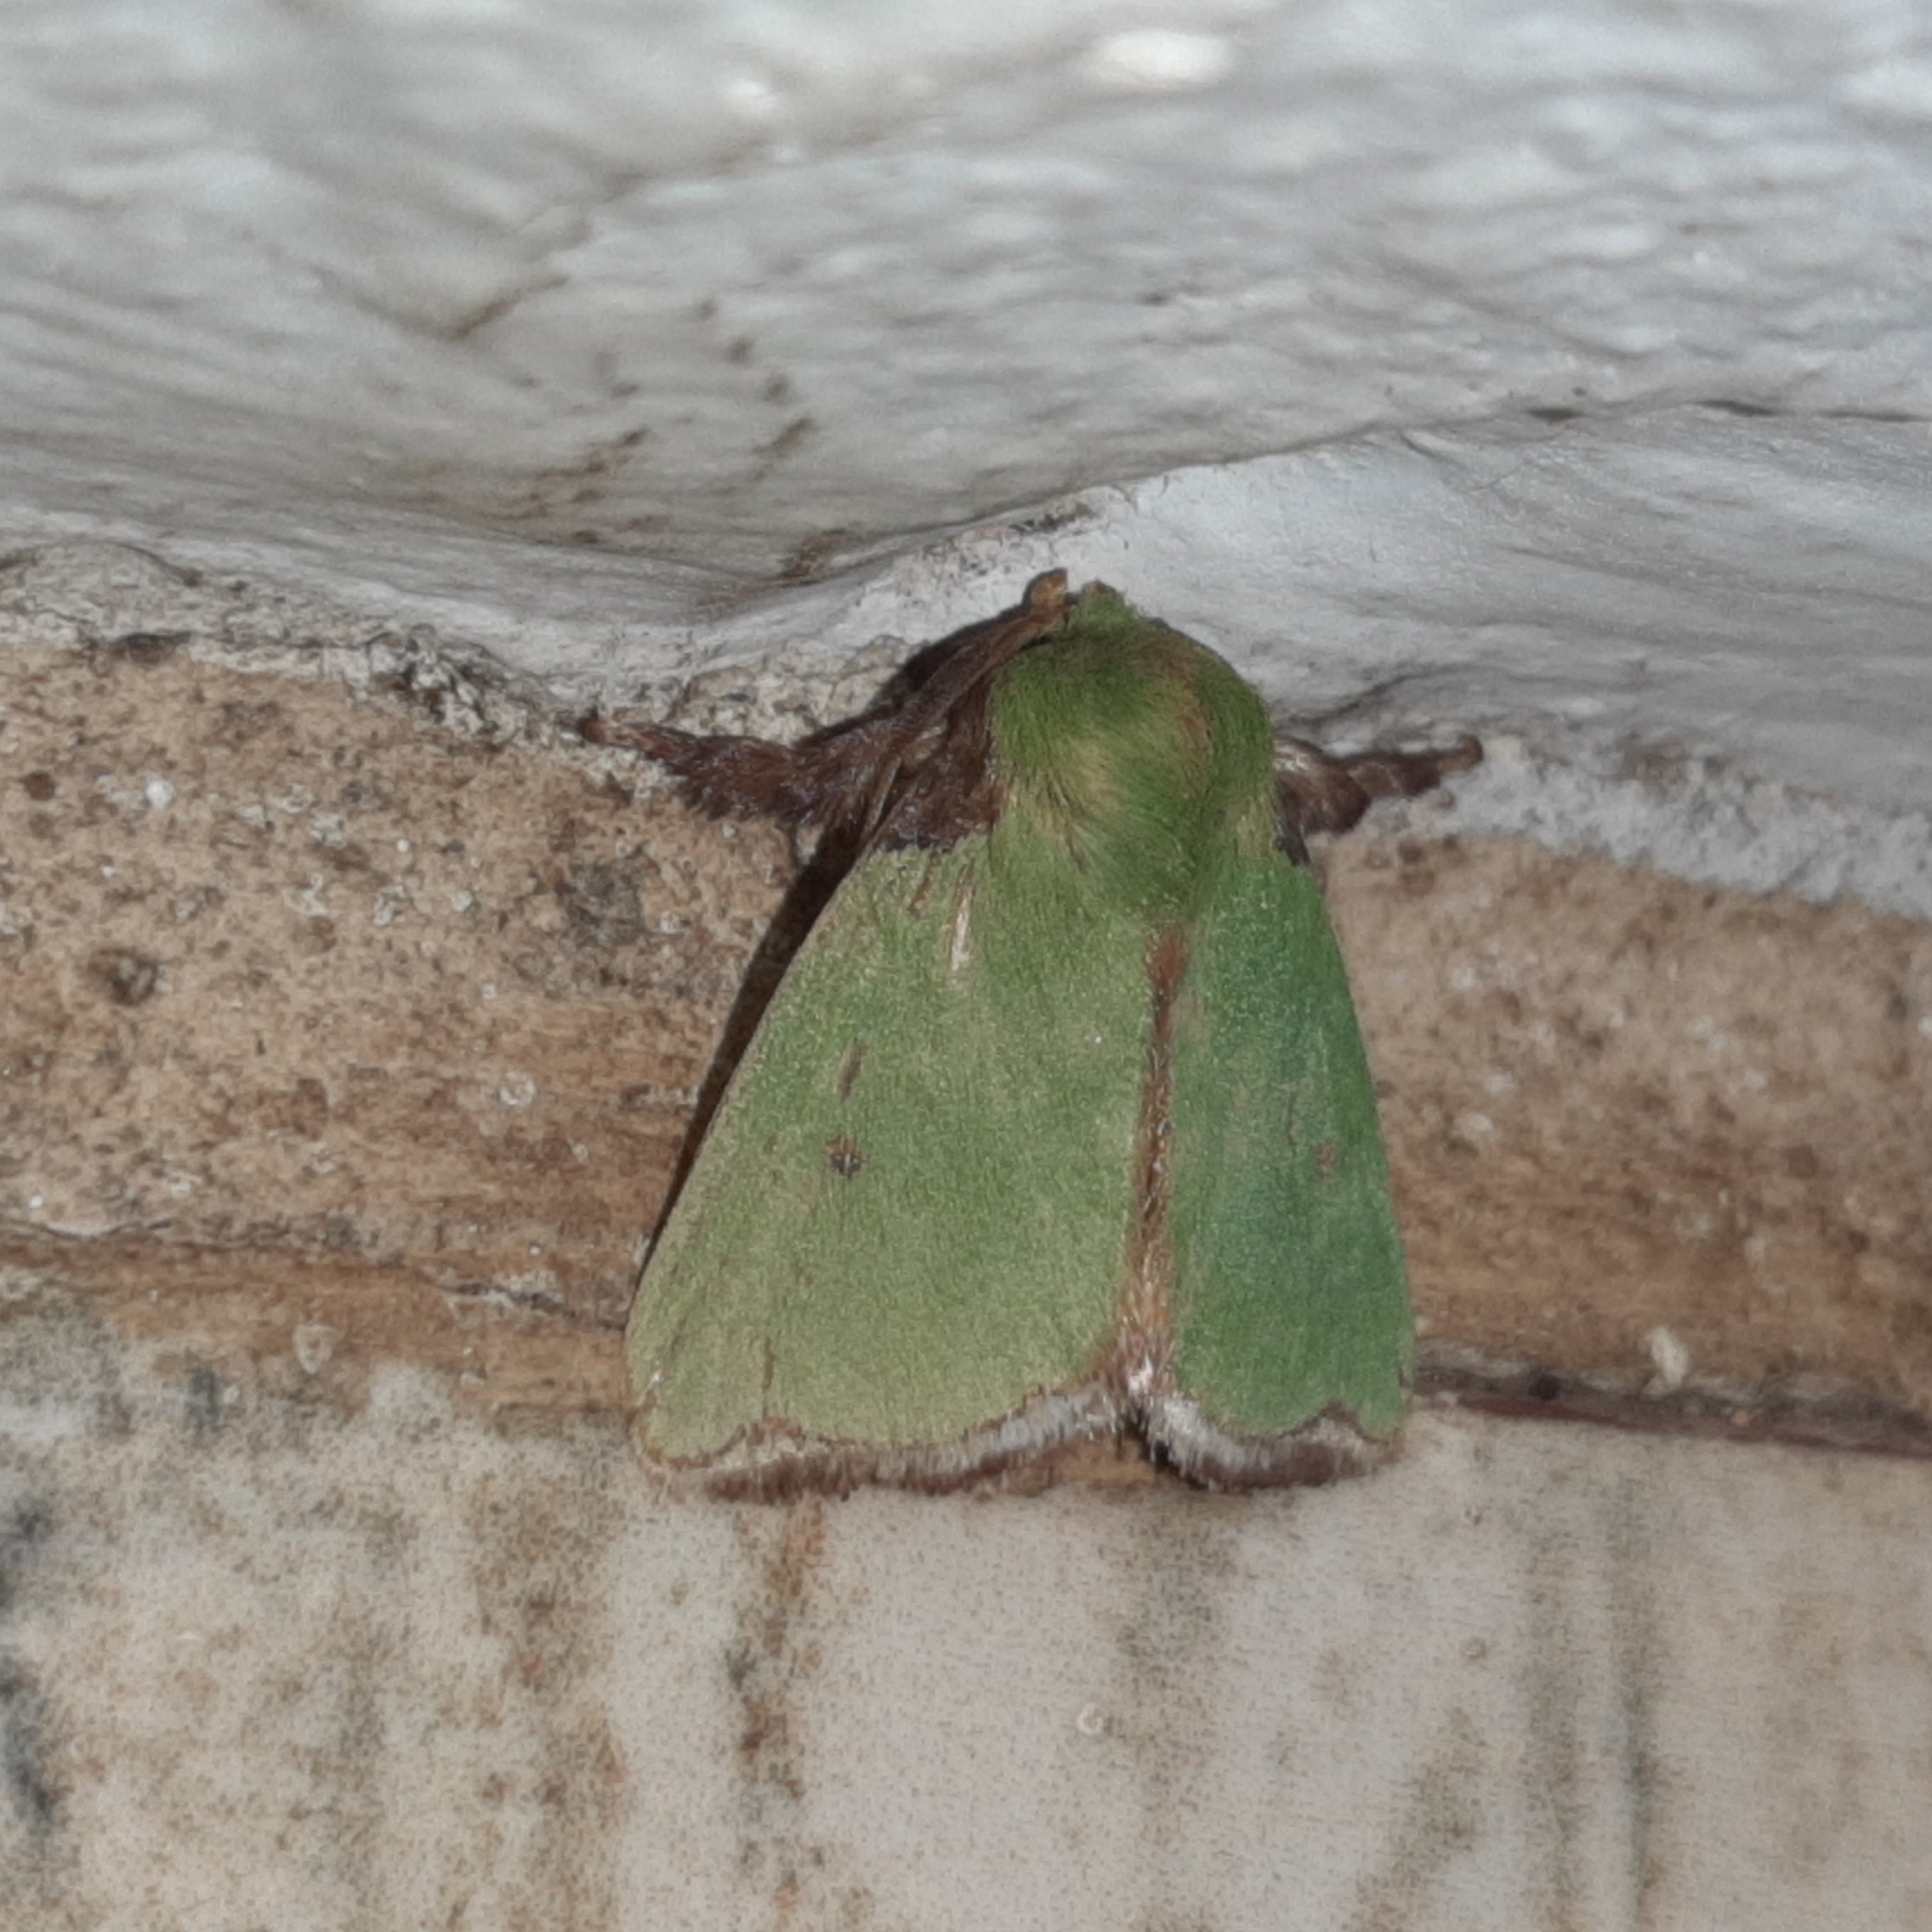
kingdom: Animalia
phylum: Arthropoda
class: Insecta
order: Lepidoptera
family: Limacodidae
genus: Parasa
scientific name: Parasa wellesca
